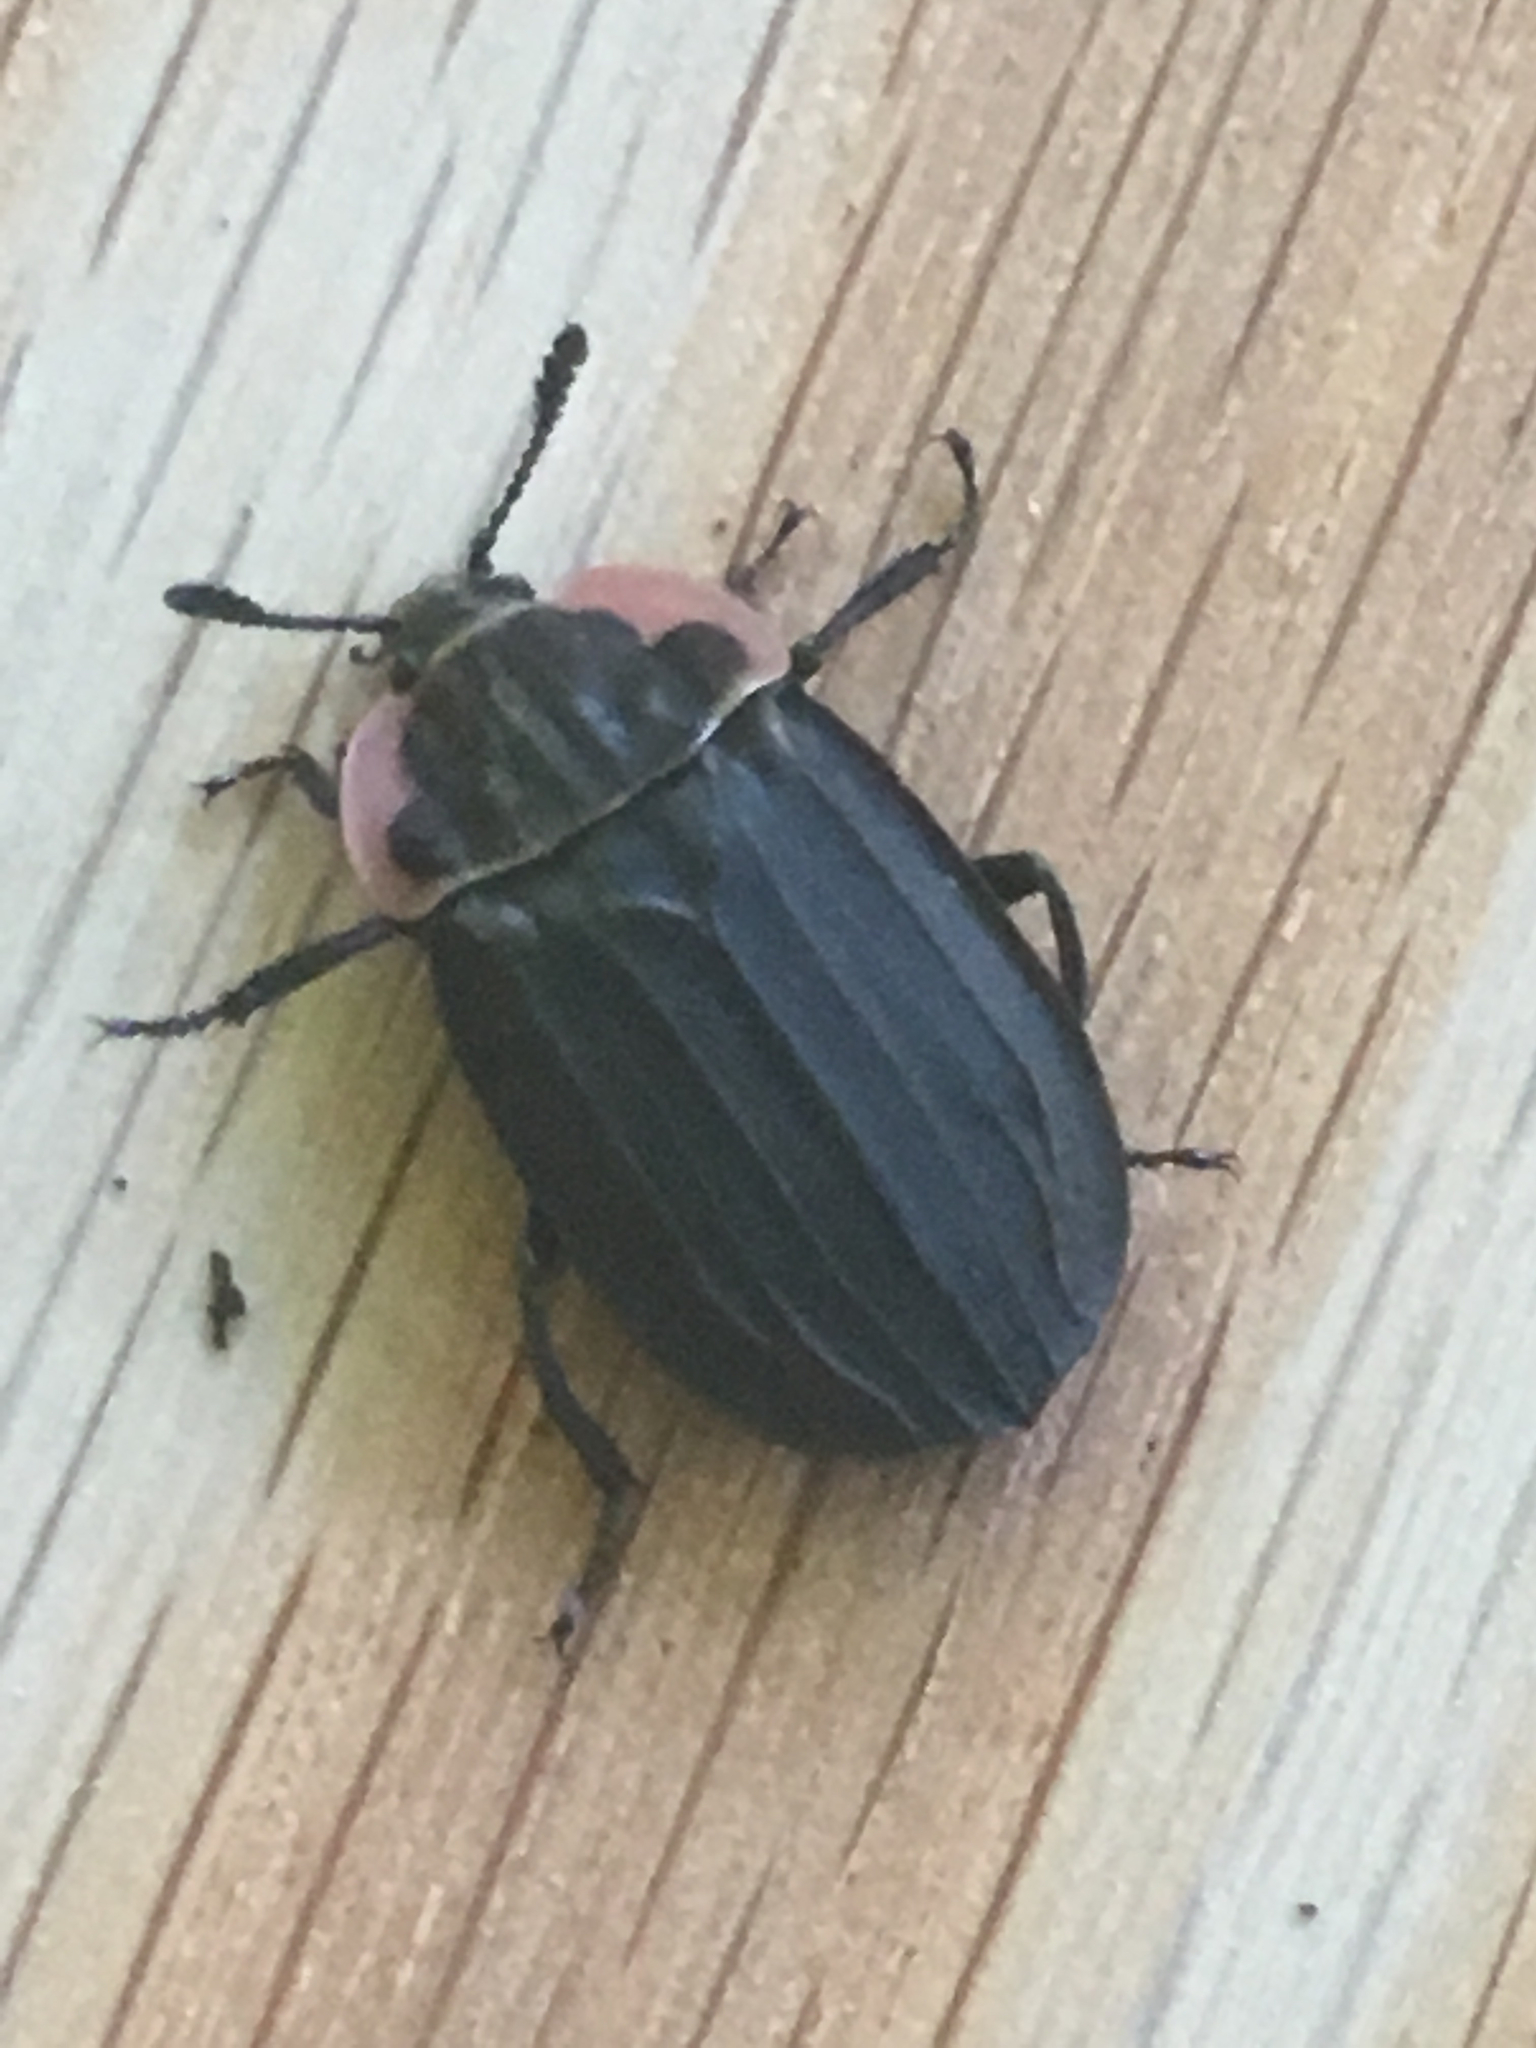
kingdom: Animalia
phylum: Arthropoda
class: Insecta
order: Coleoptera
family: Staphylinidae
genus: Oiceoptoma
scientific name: Oiceoptoma noveboracense
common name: Margined carrion beetle
